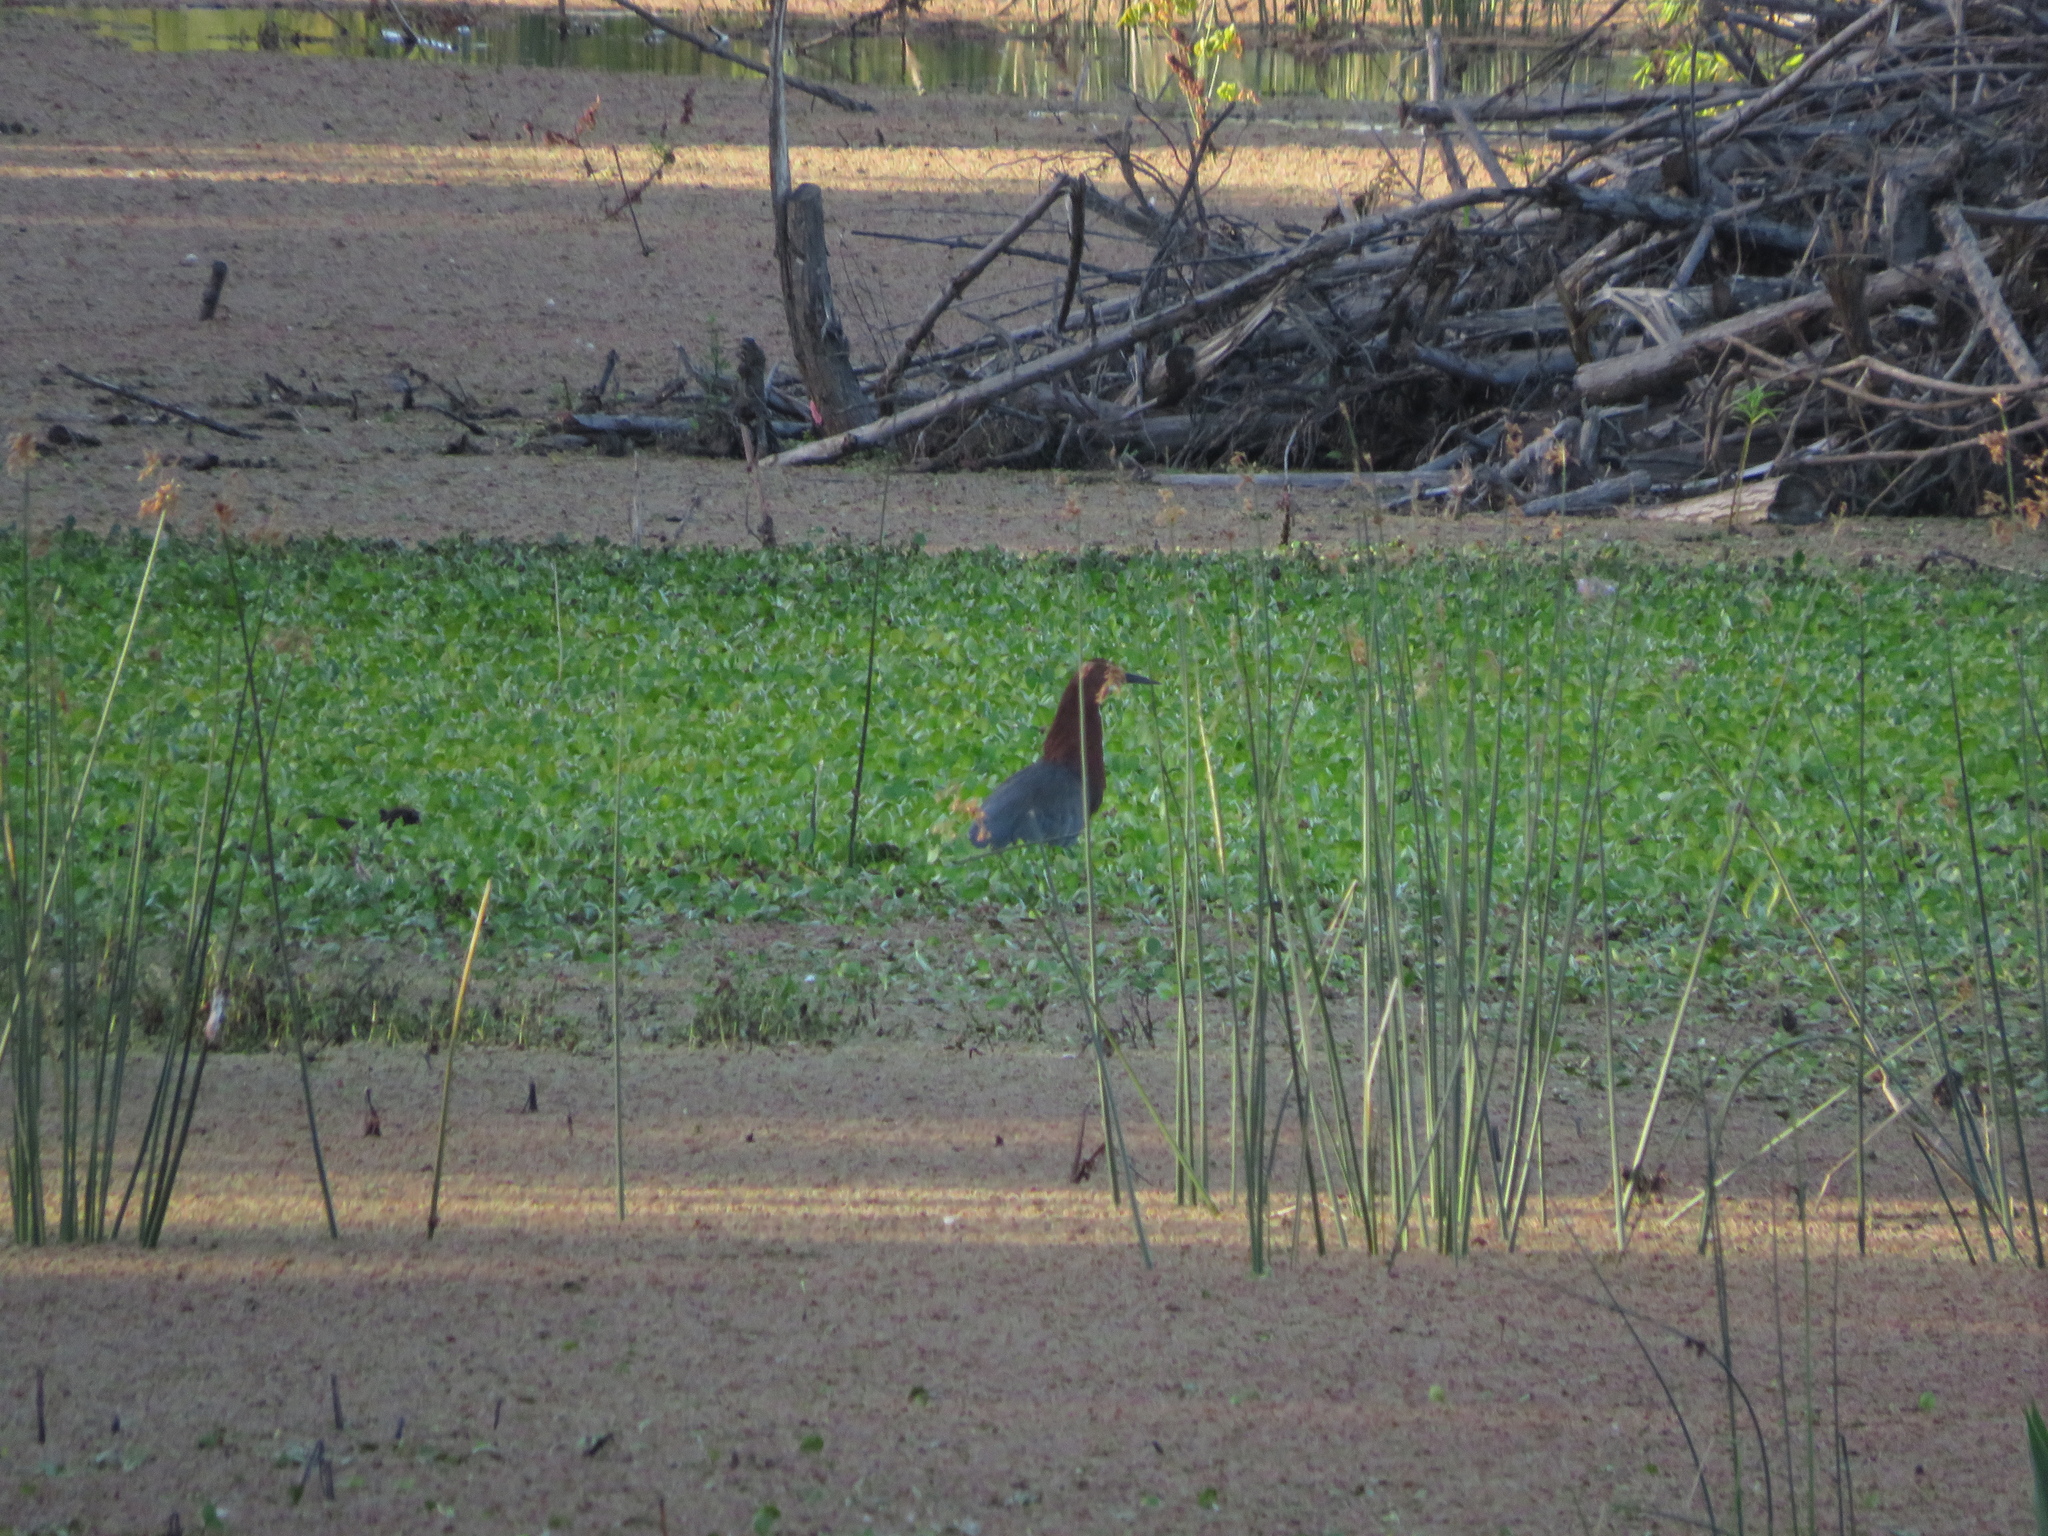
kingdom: Animalia
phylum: Chordata
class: Aves
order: Pelecaniformes
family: Ardeidae
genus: Tigrisoma
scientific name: Tigrisoma lineatum
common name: Rufescent tiger-heron
